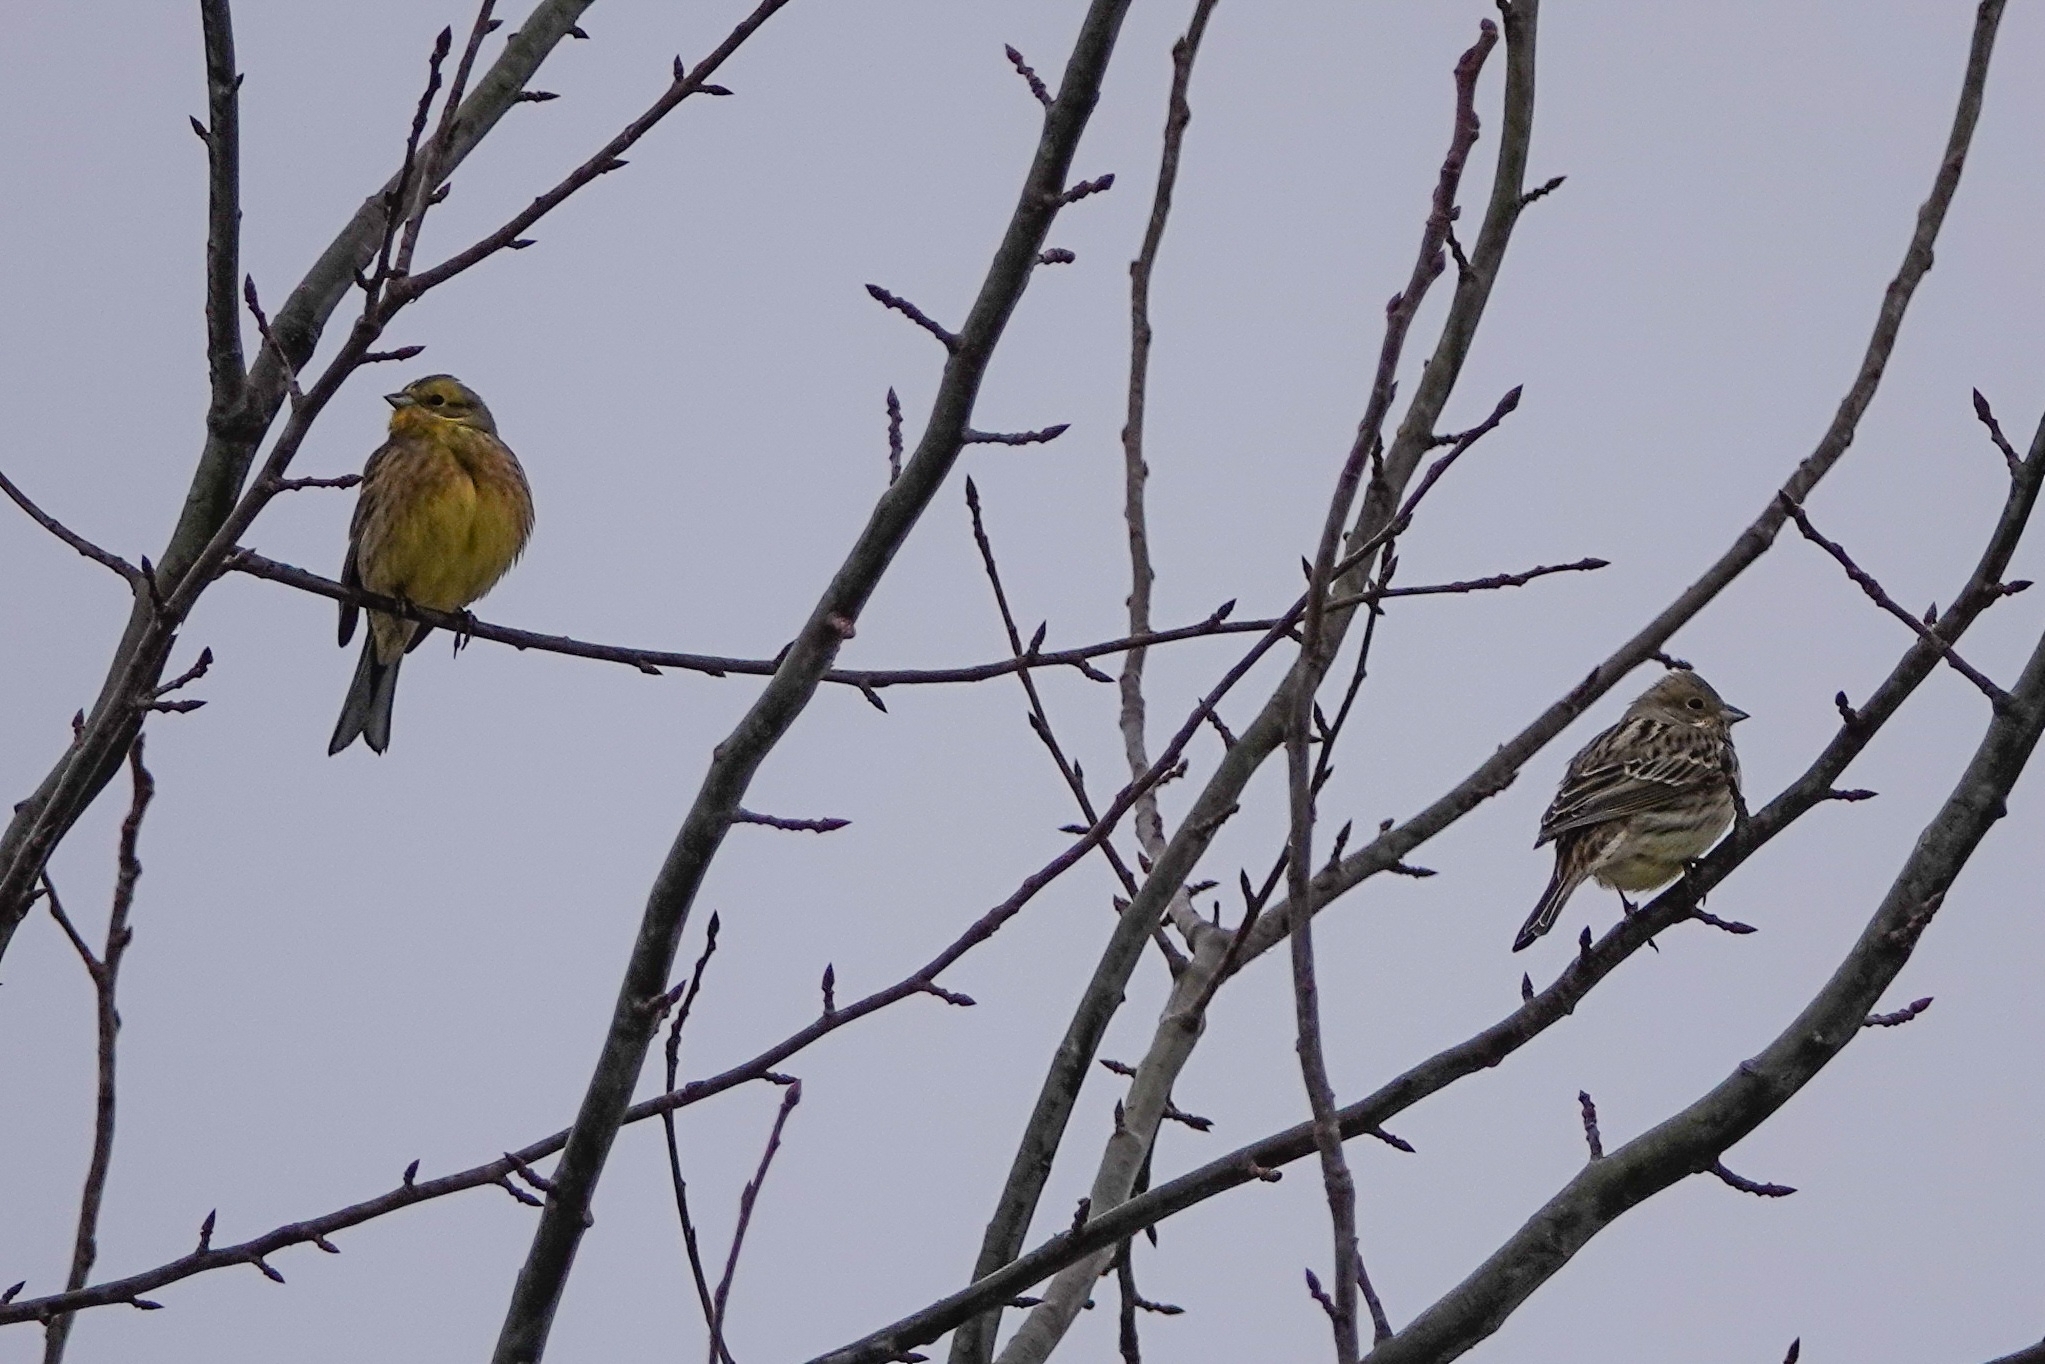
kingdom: Animalia
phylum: Chordata
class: Aves
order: Passeriformes
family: Emberizidae
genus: Emberiza
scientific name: Emberiza citrinella
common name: Yellowhammer
